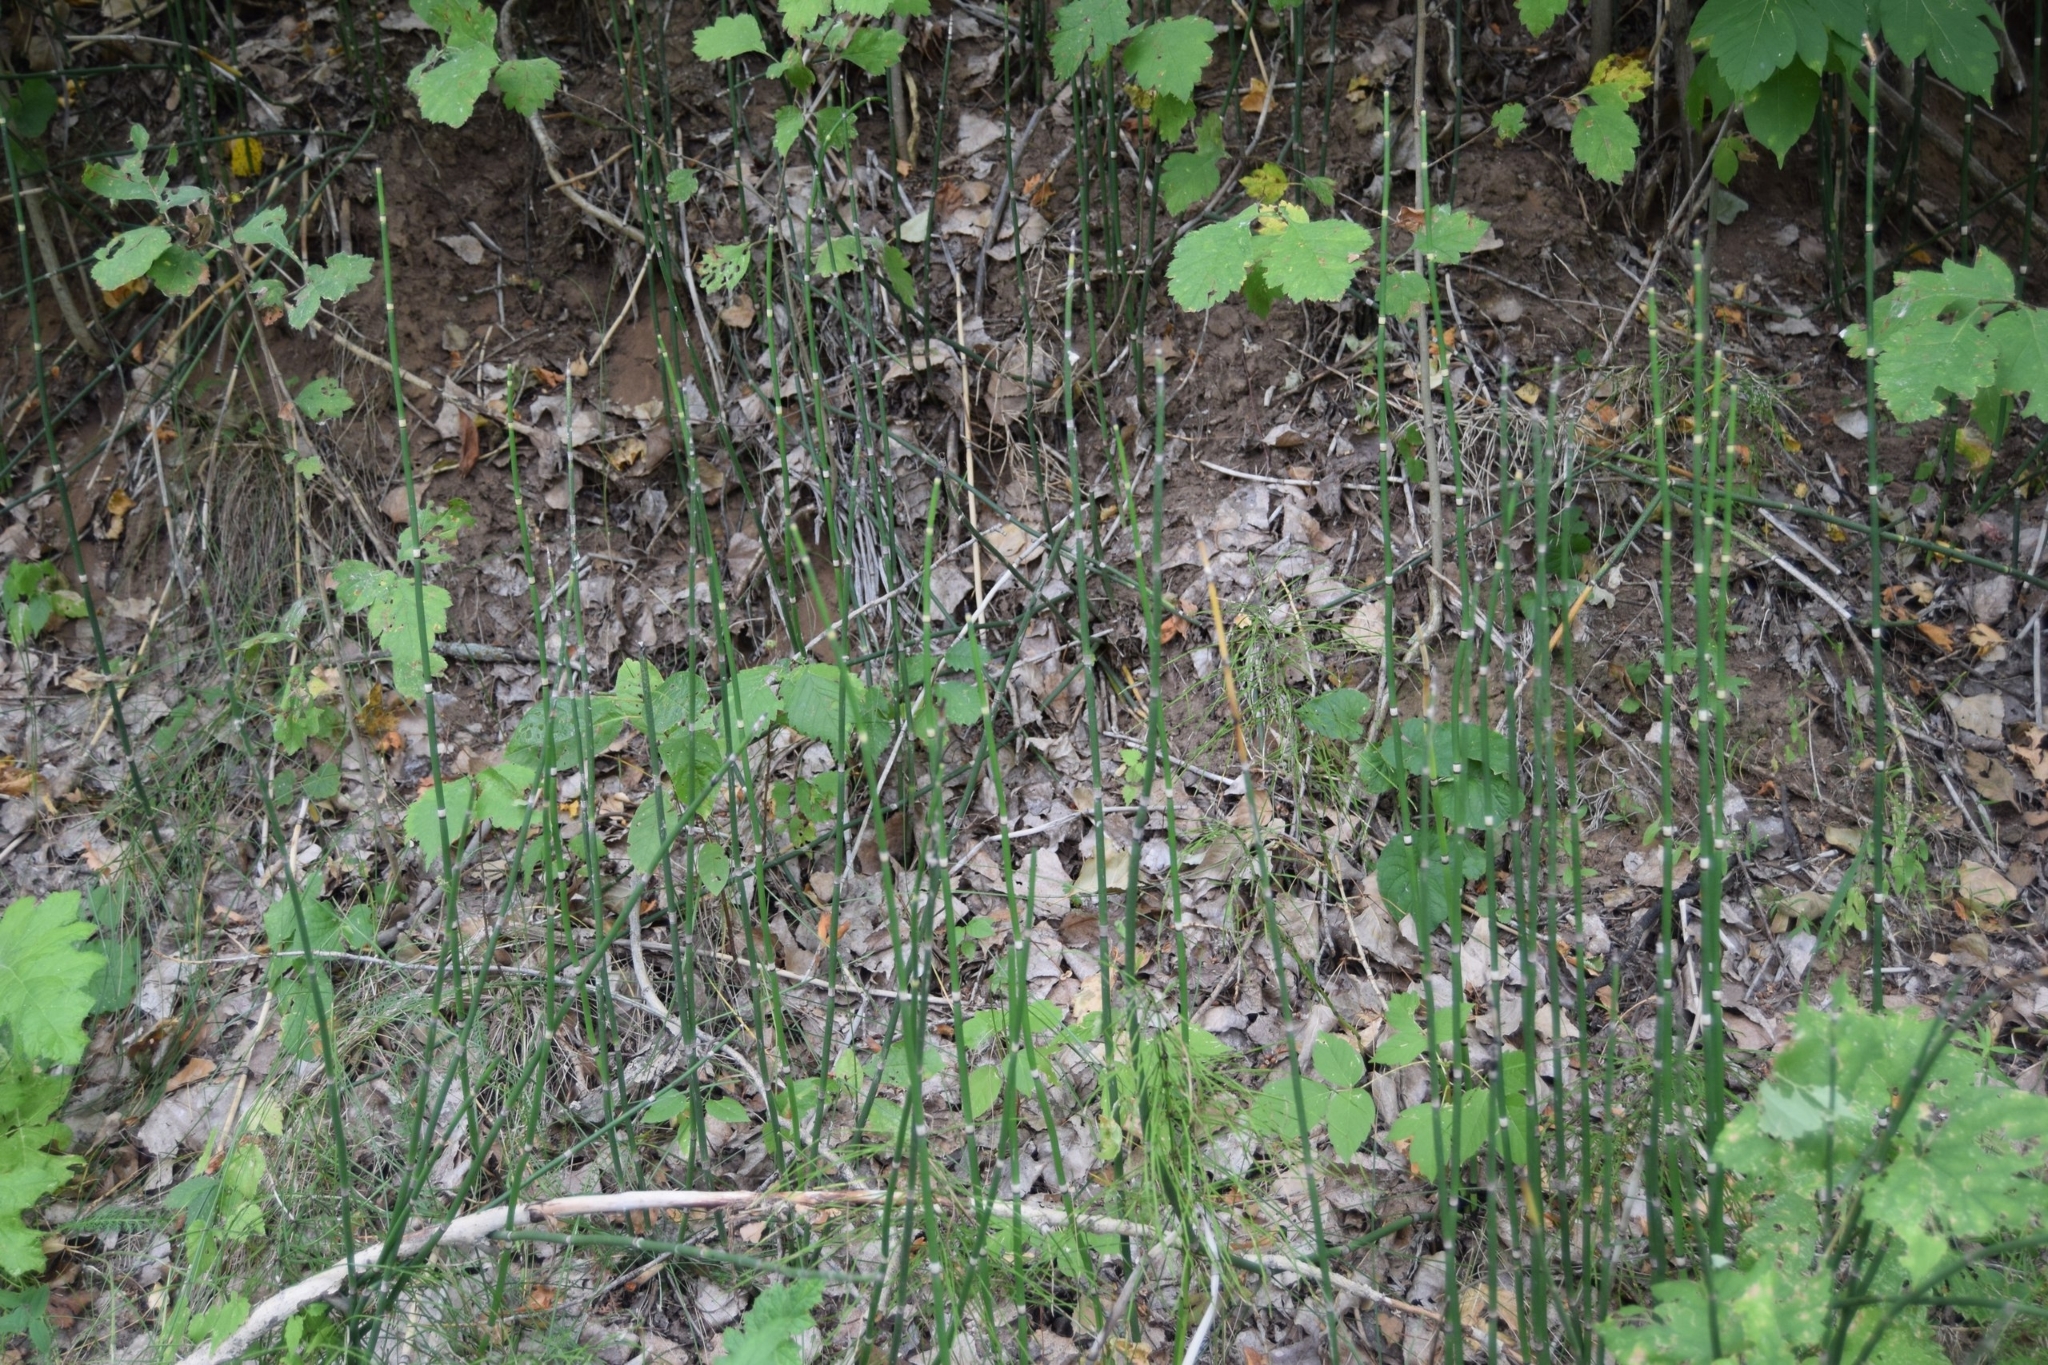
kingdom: Plantae
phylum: Tracheophyta
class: Polypodiopsida
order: Equisetales
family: Equisetaceae
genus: Equisetum
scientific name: Equisetum hyemale
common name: Rough horsetail
